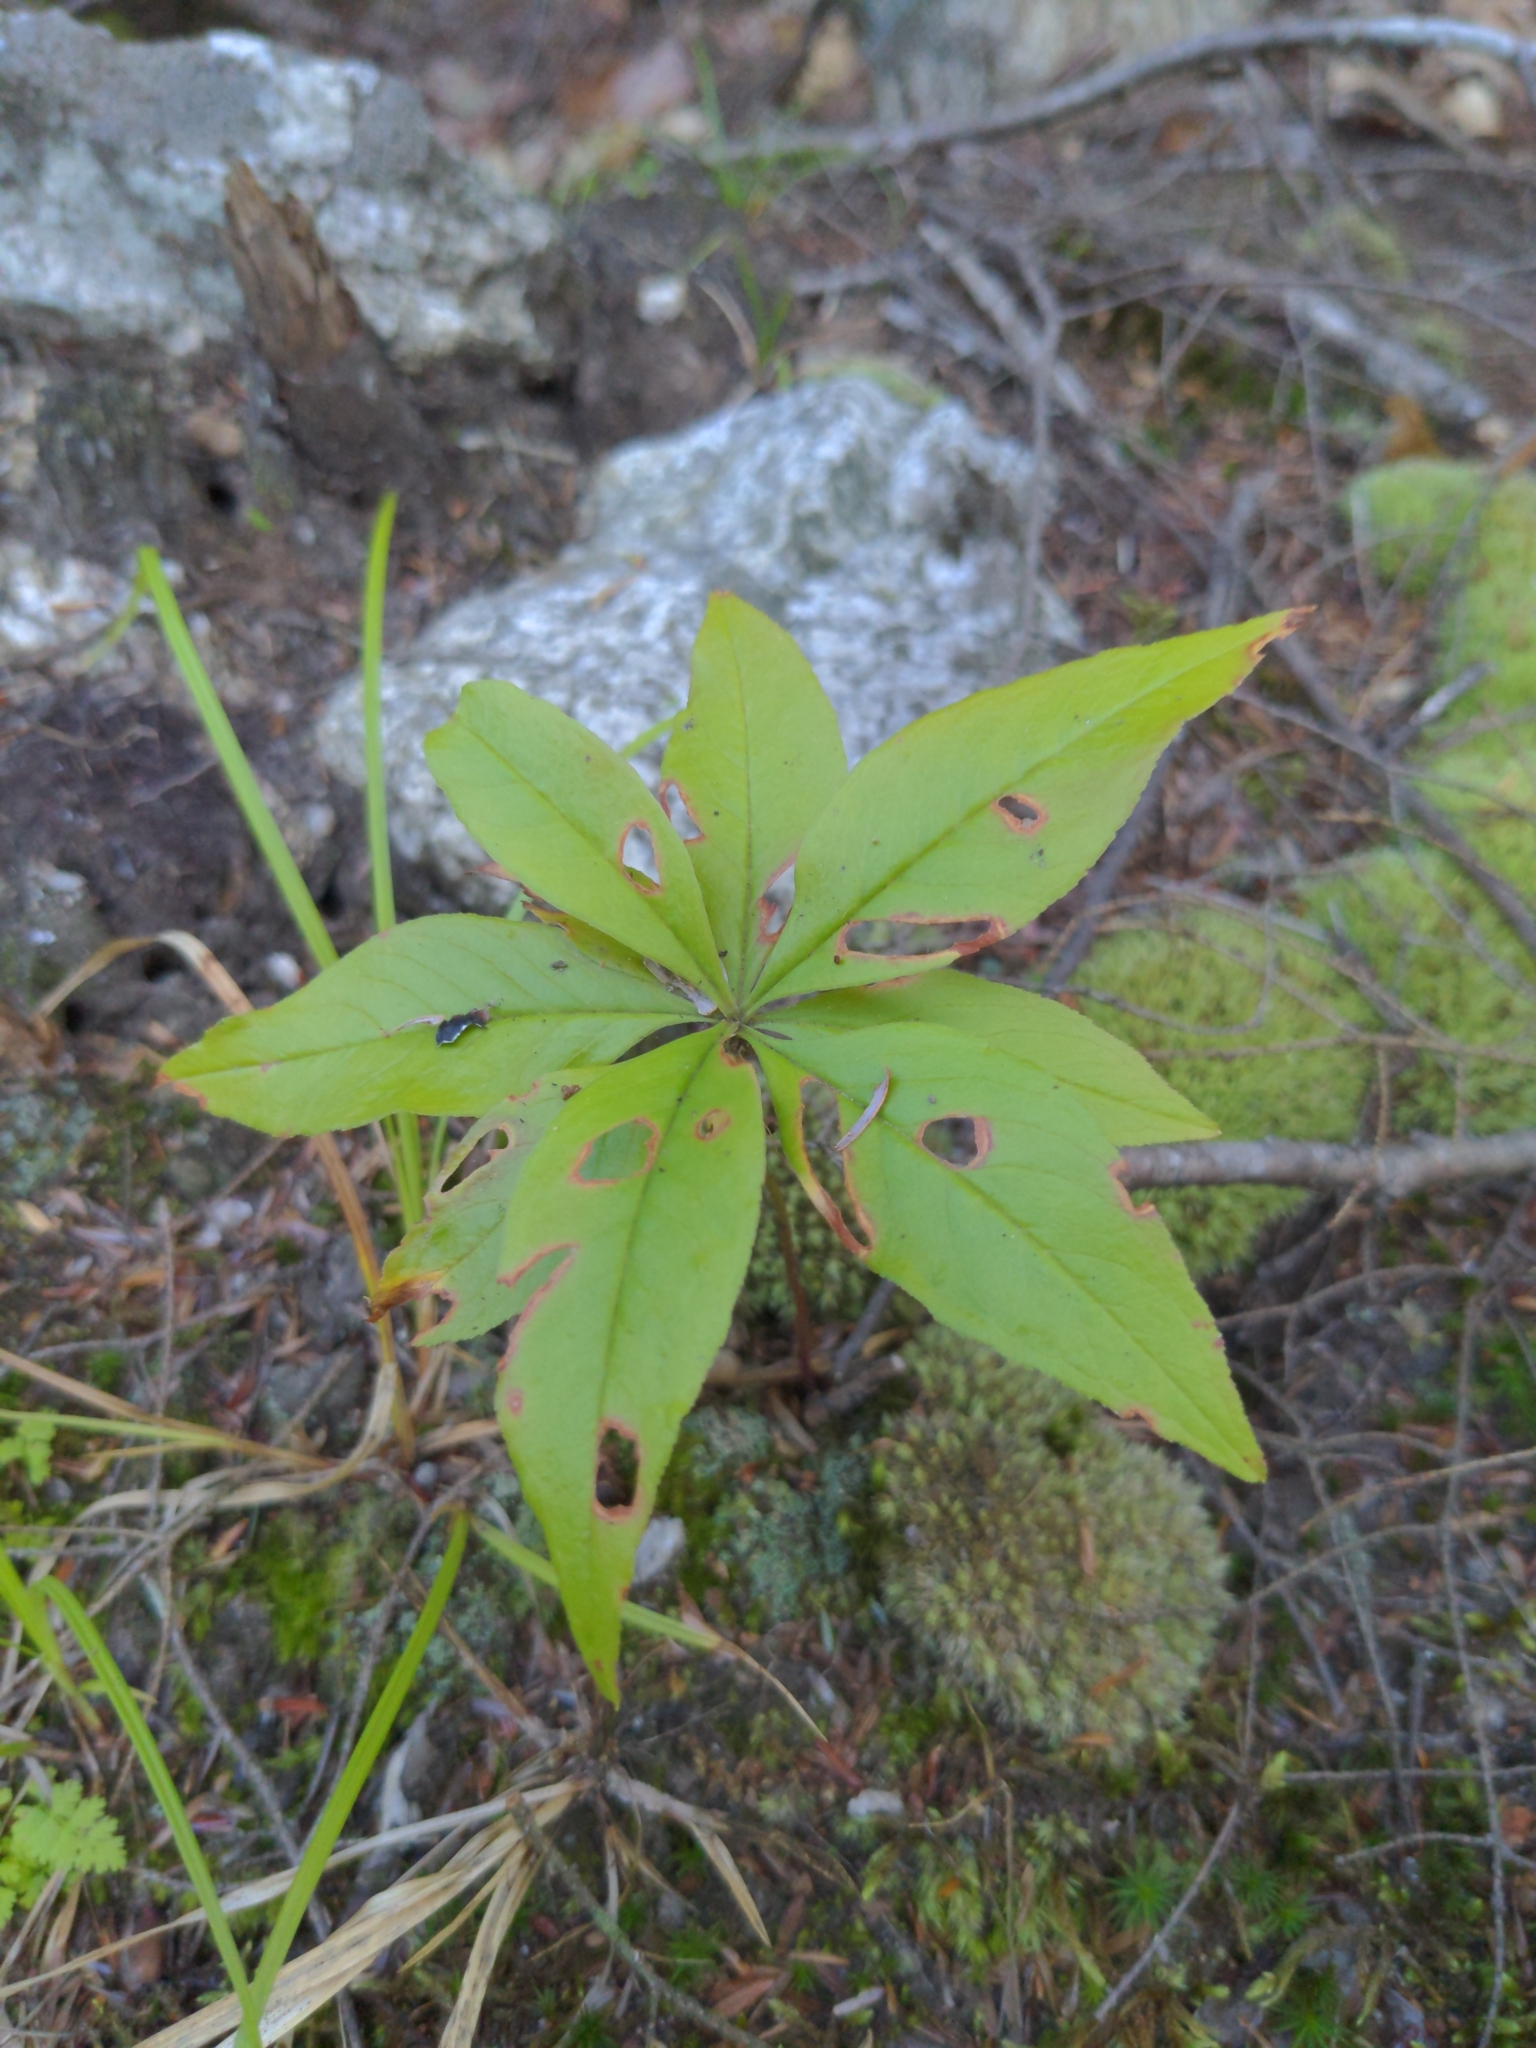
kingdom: Plantae
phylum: Tracheophyta
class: Magnoliopsida
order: Ericales
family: Primulaceae
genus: Lysimachia
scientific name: Lysimachia borealis
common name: American starflower
